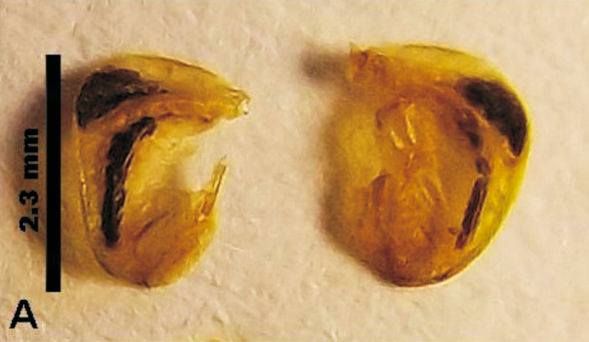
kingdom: Animalia
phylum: Arthropoda
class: Insecta
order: Orthoptera
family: Tettigoniidae
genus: Leptophyes
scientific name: Leptophyes boscii
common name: Balkan speckled bush-cricket
